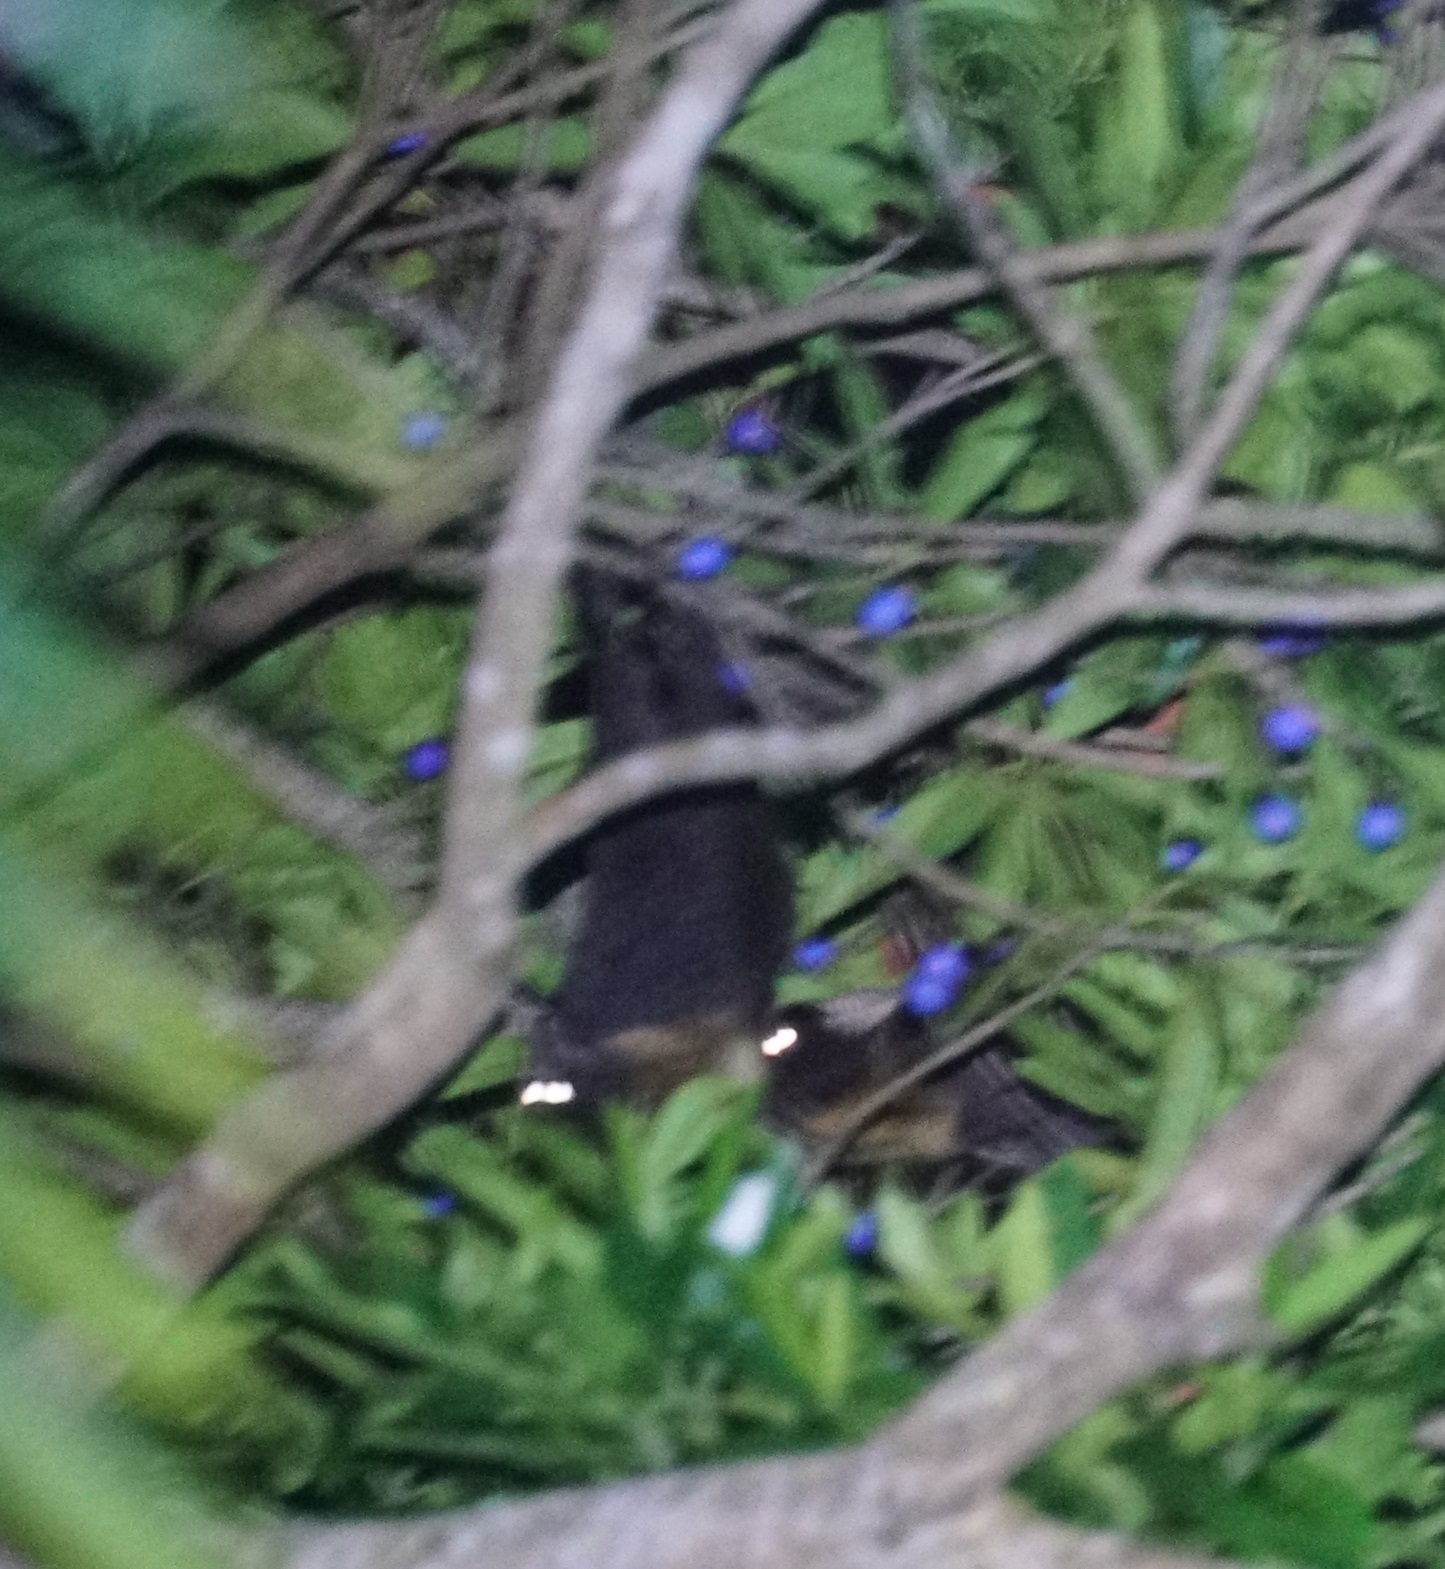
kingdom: Animalia
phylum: Chordata
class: Mammalia
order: Chiroptera
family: Pteropodidae
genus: Pteropus
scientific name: Pteropus conspicillatus
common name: Spectacled flying fox
